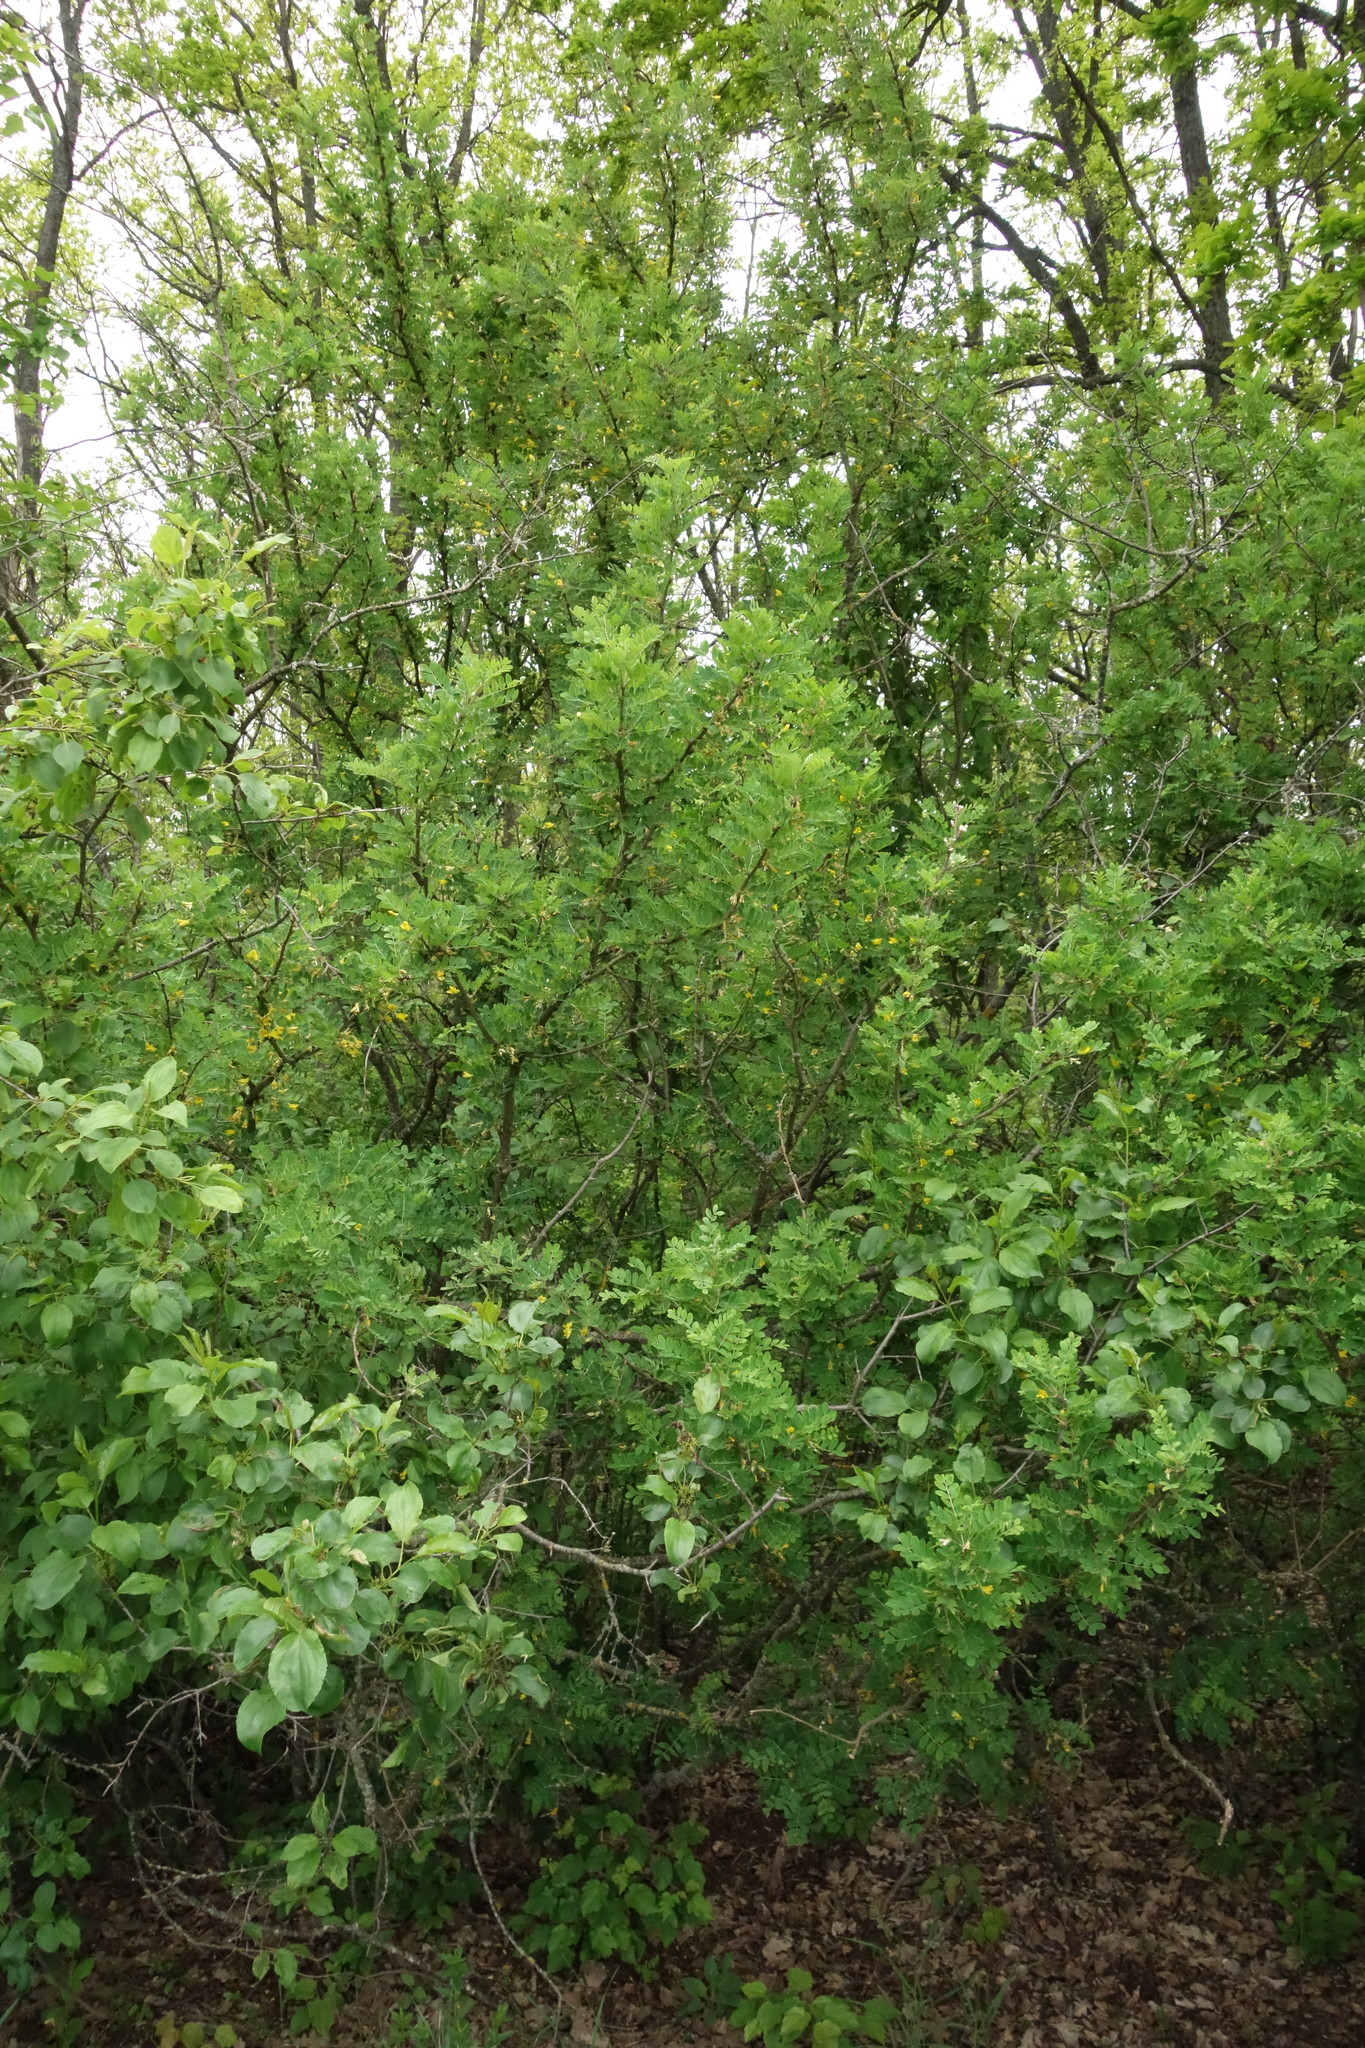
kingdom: Plantae
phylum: Tracheophyta
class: Magnoliopsida
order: Fabales
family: Fabaceae
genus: Caragana
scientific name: Caragana arborescens
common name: Siberian peashrub
